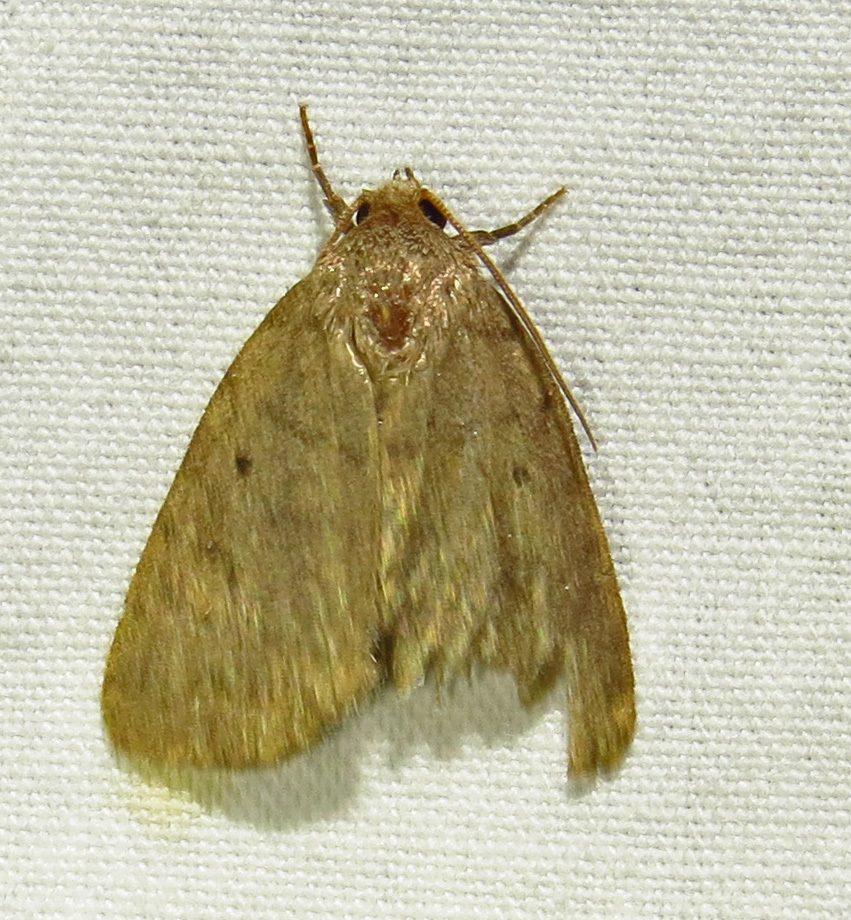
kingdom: Animalia
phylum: Arthropoda
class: Insecta
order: Lepidoptera
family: Noctuidae
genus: Athetis
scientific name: Athetis tarda
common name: Slowpoke moth
